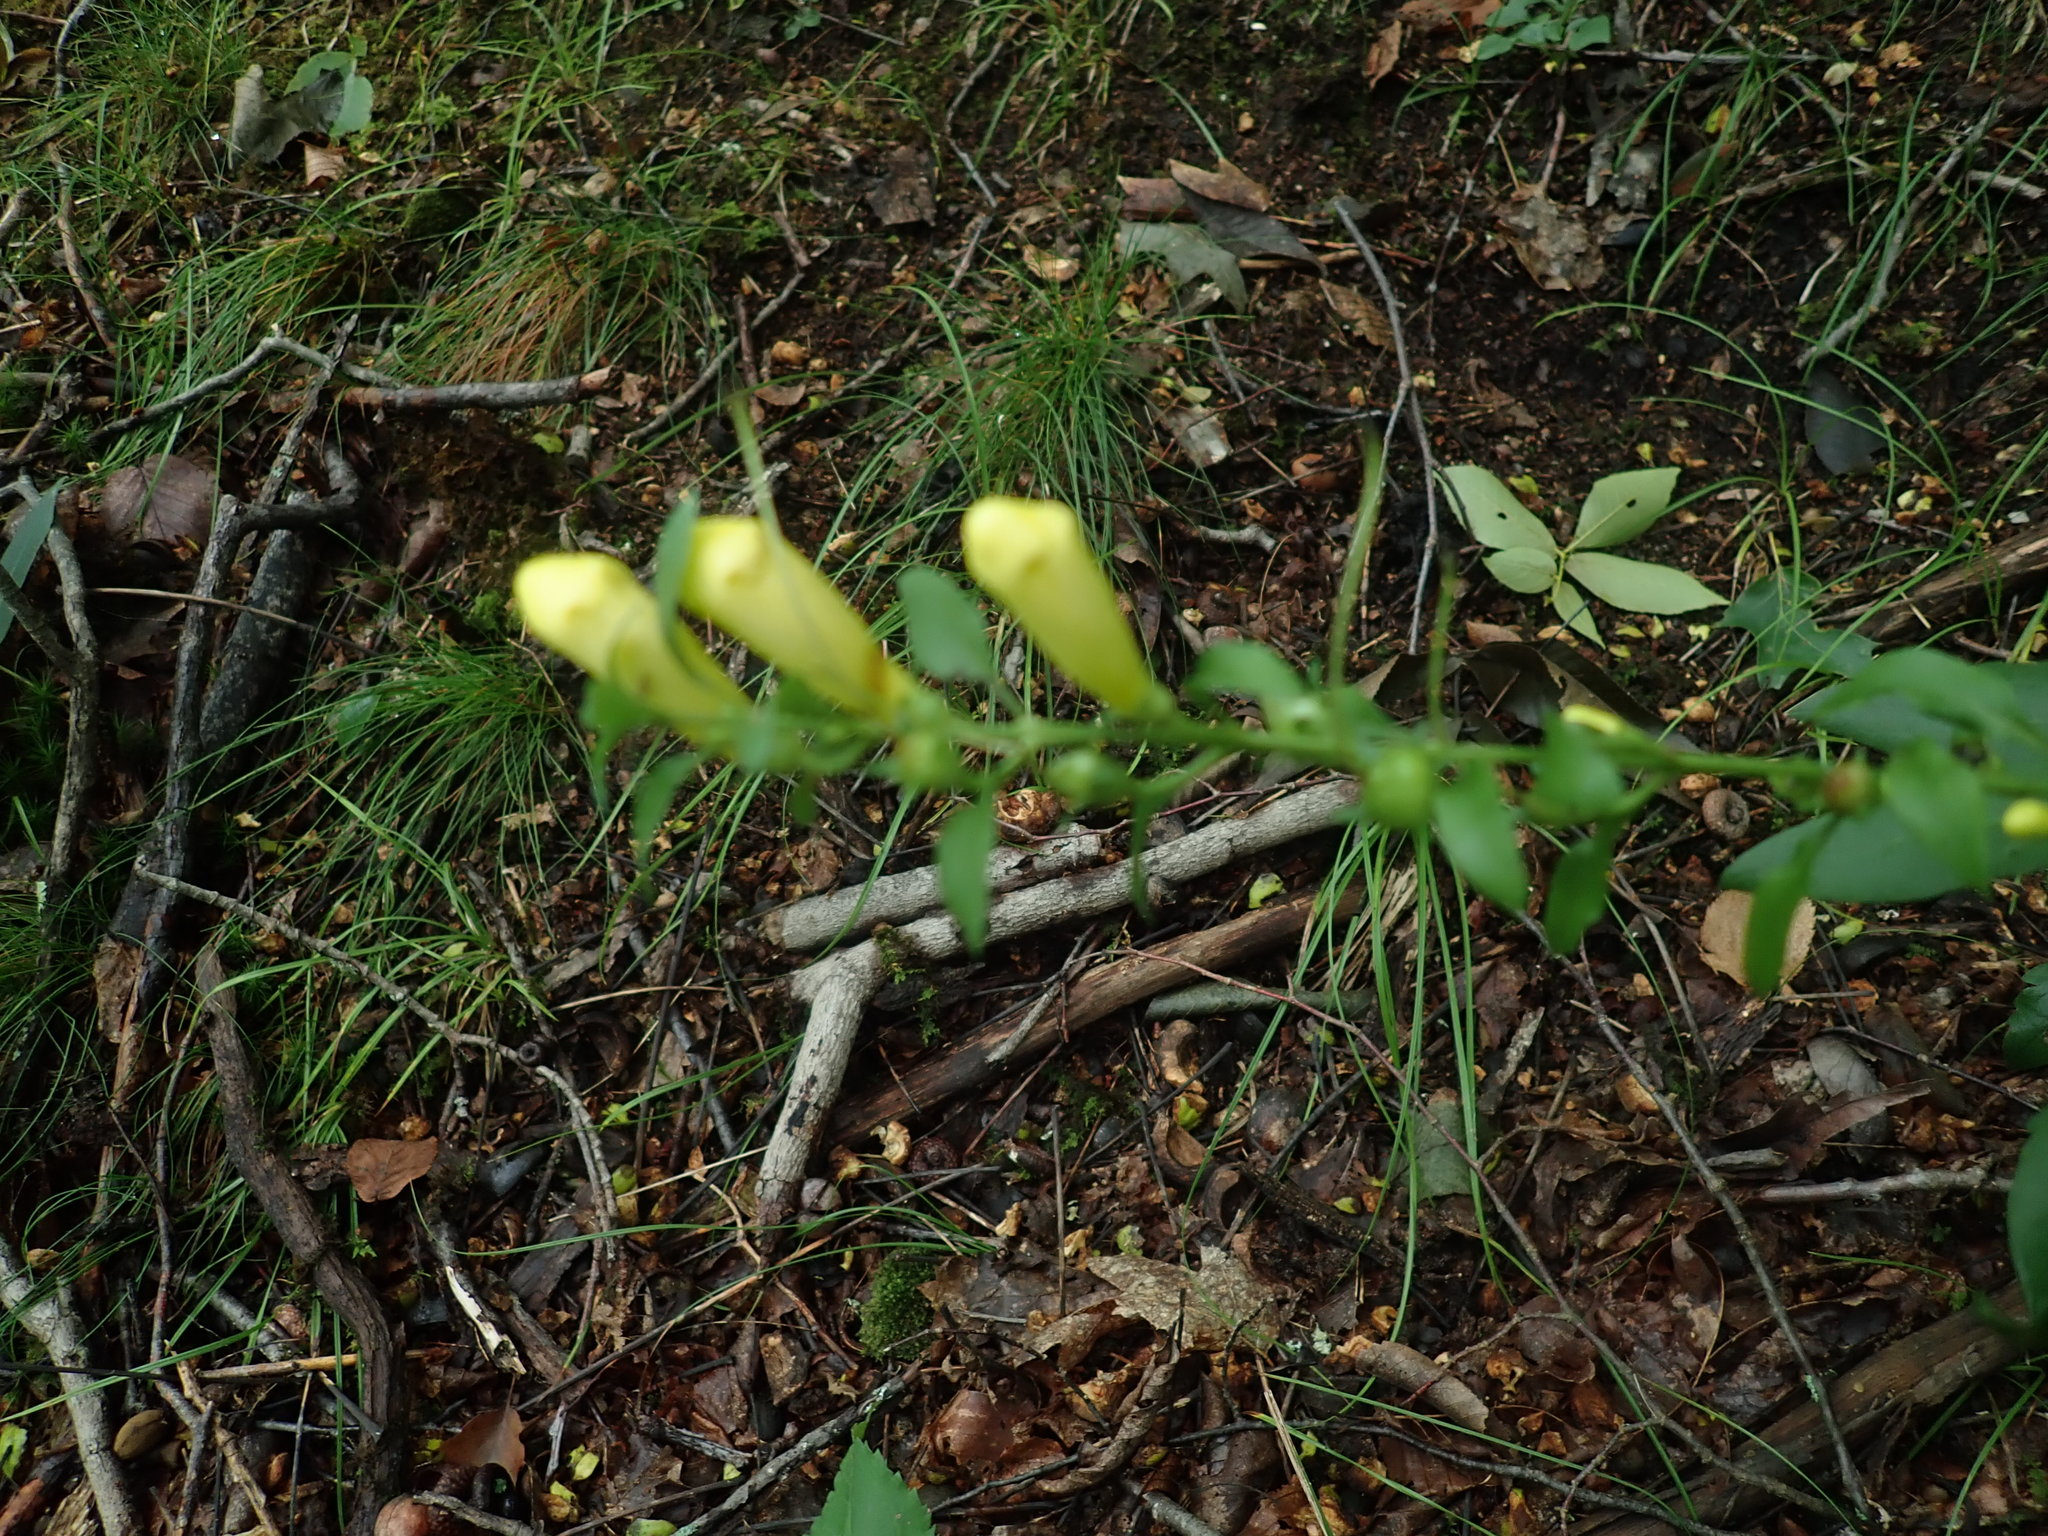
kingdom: Plantae
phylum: Tracheophyta
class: Magnoliopsida
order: Lamiales
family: Orobanchaceae
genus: Aureolaria
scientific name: Aureolaria flava
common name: Smooth false foxglove
